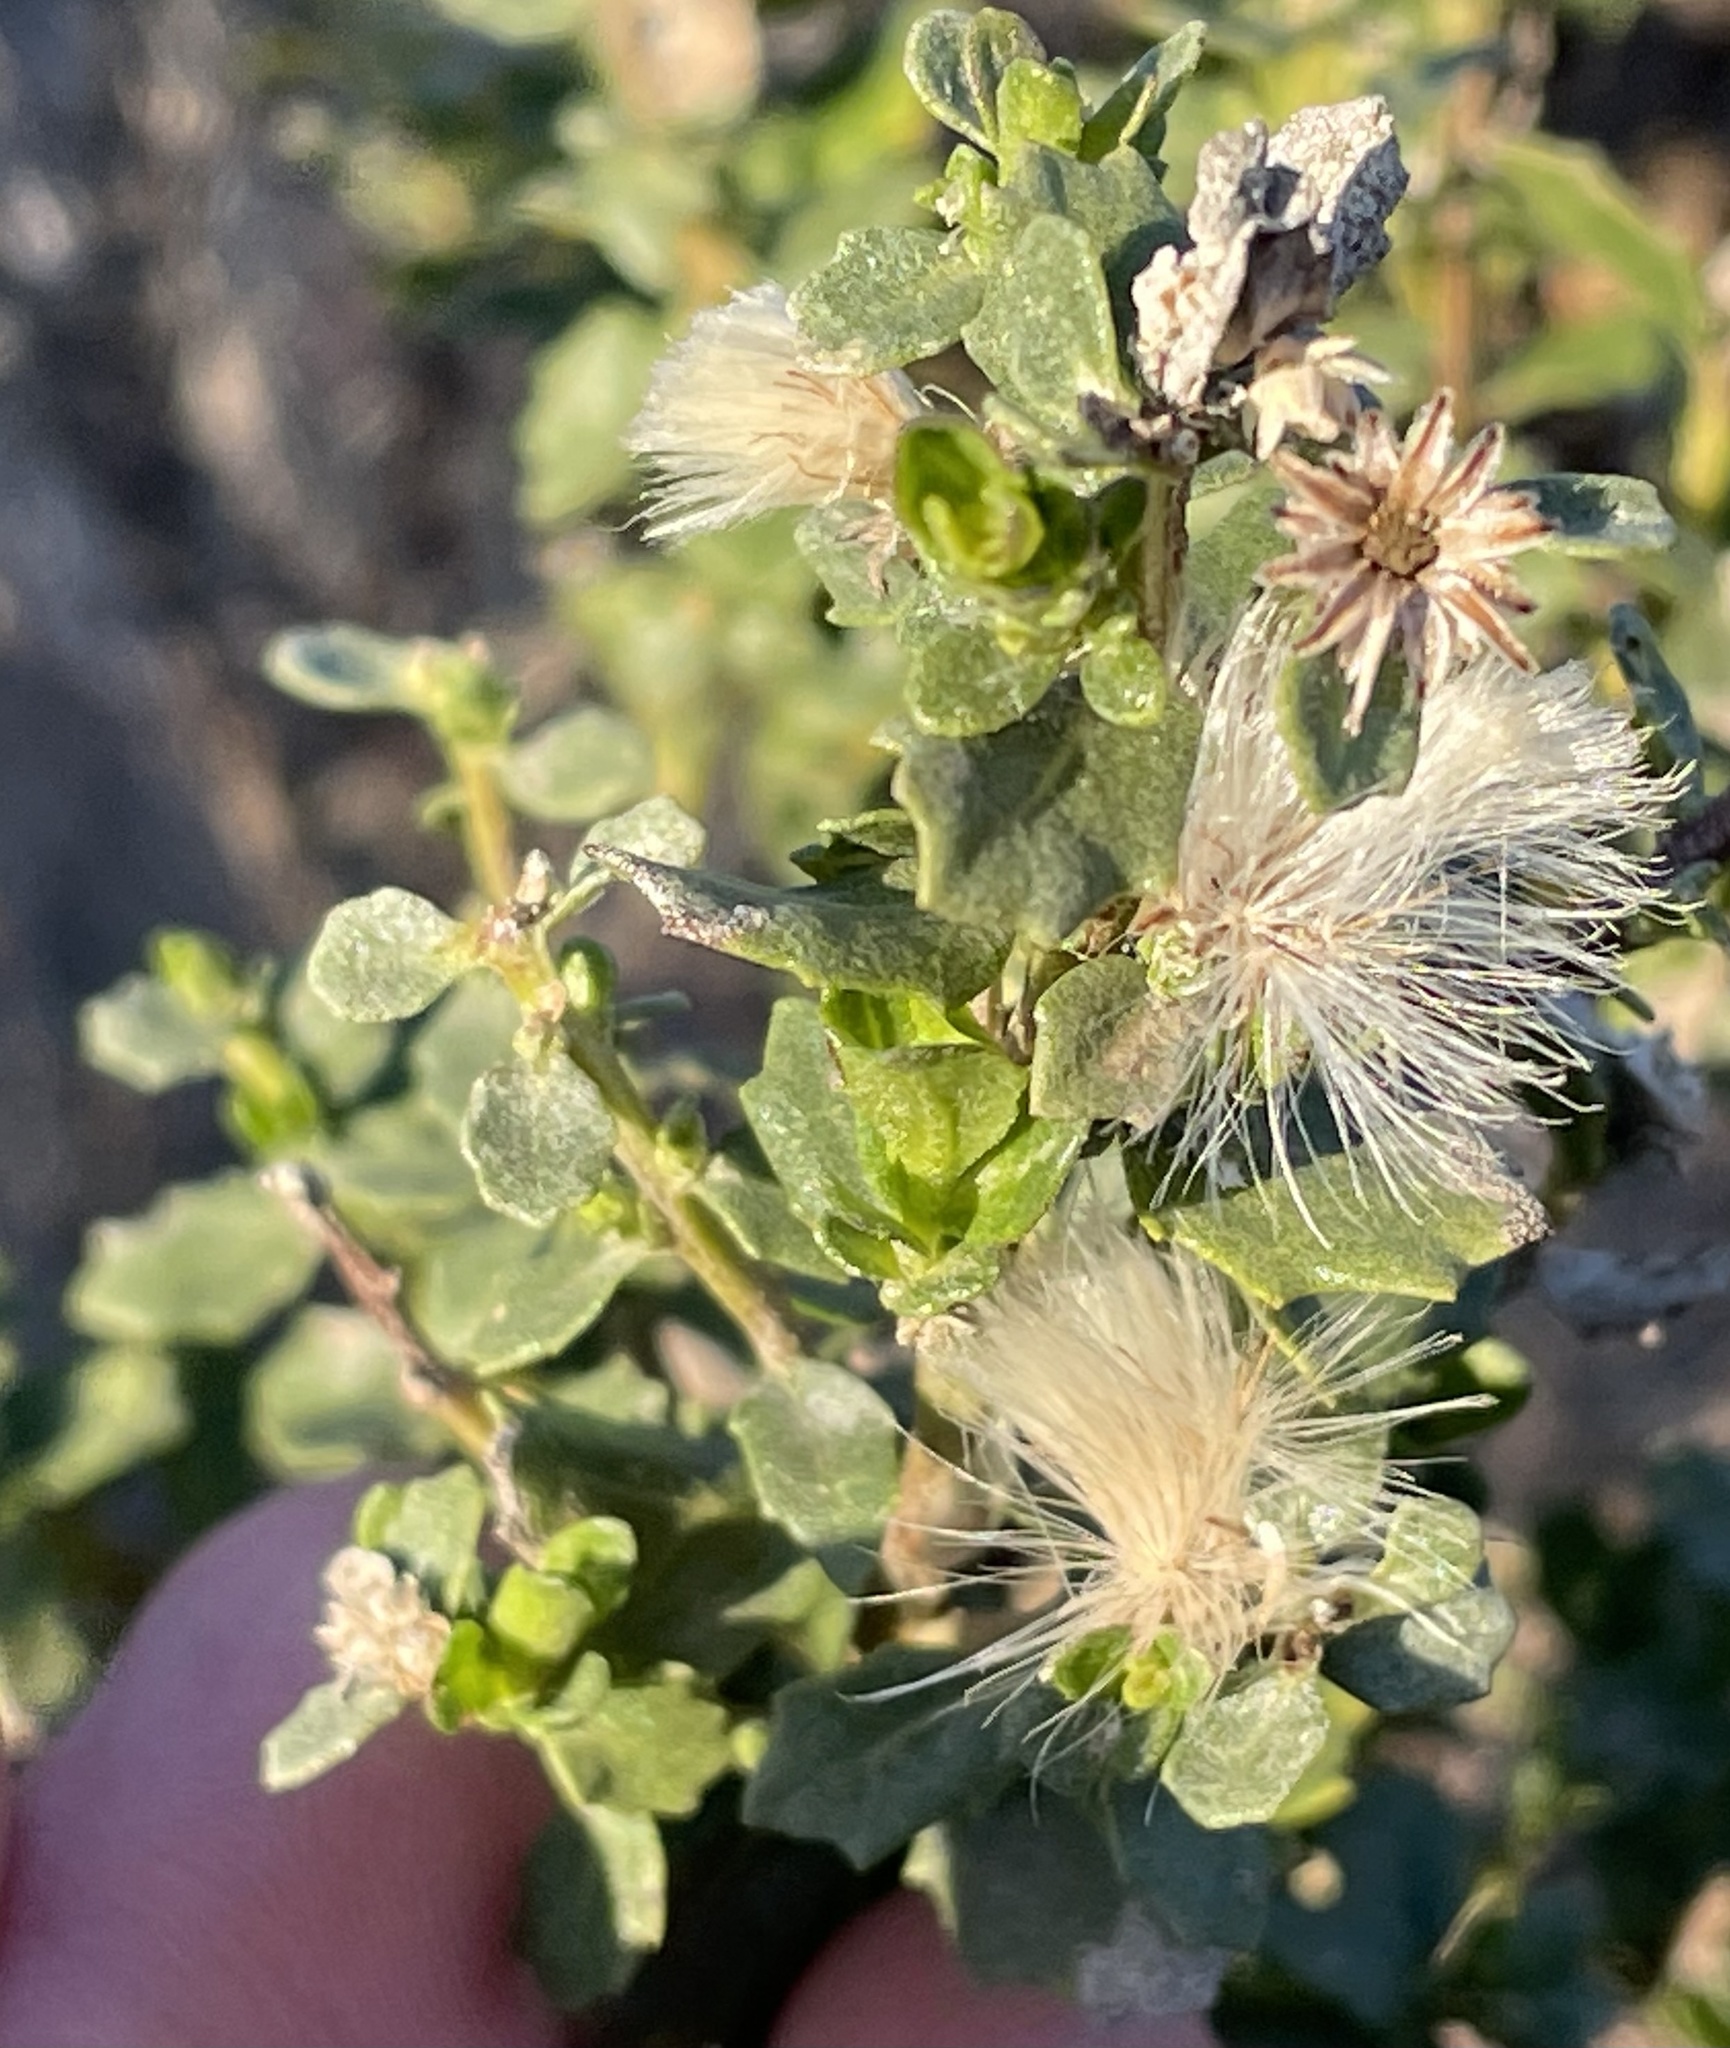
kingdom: Plantae
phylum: Tracheophyta
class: Magnoliopsida
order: Asterales
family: Asteraceae
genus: Baccharis
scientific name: Baccharis pilularis
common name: Coyotebrush
